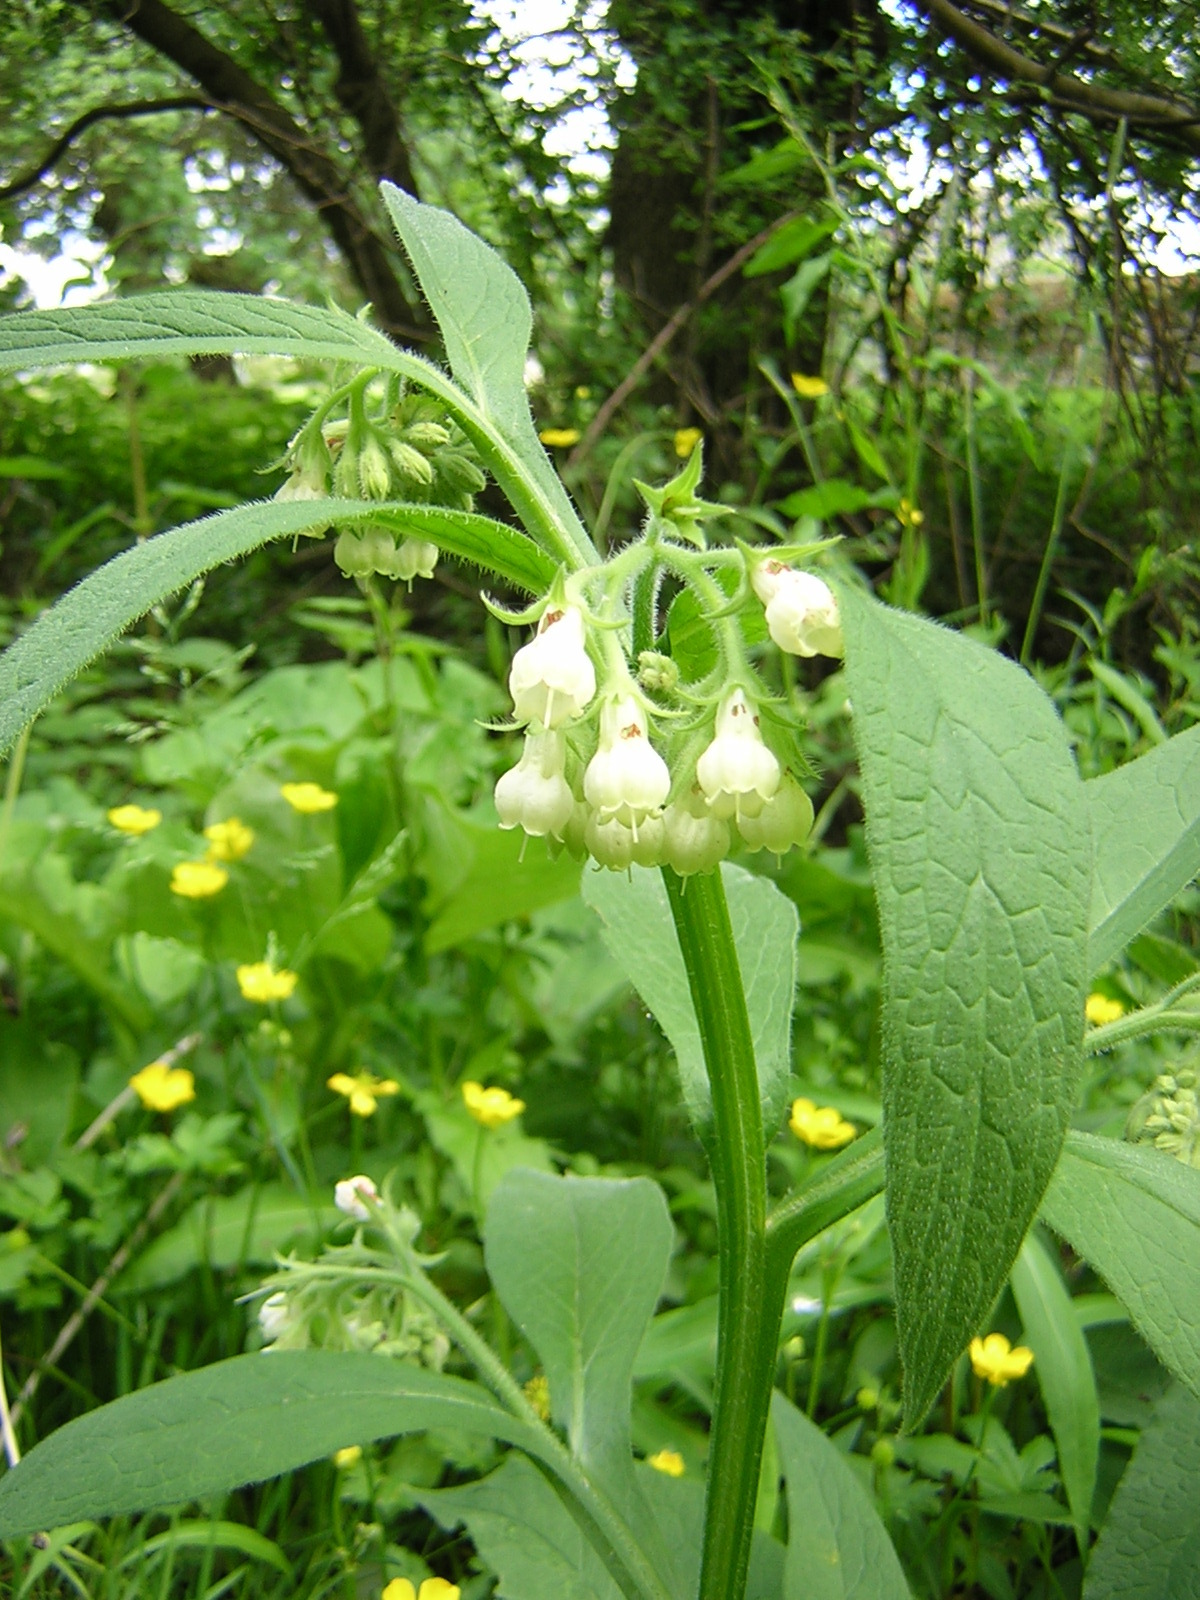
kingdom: Plantae
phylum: Tracheophyta
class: Magnoliopsida
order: Boraginales
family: Boraginaceae
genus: Symphytum
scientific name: Symphytum officinale
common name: Common comfrey
